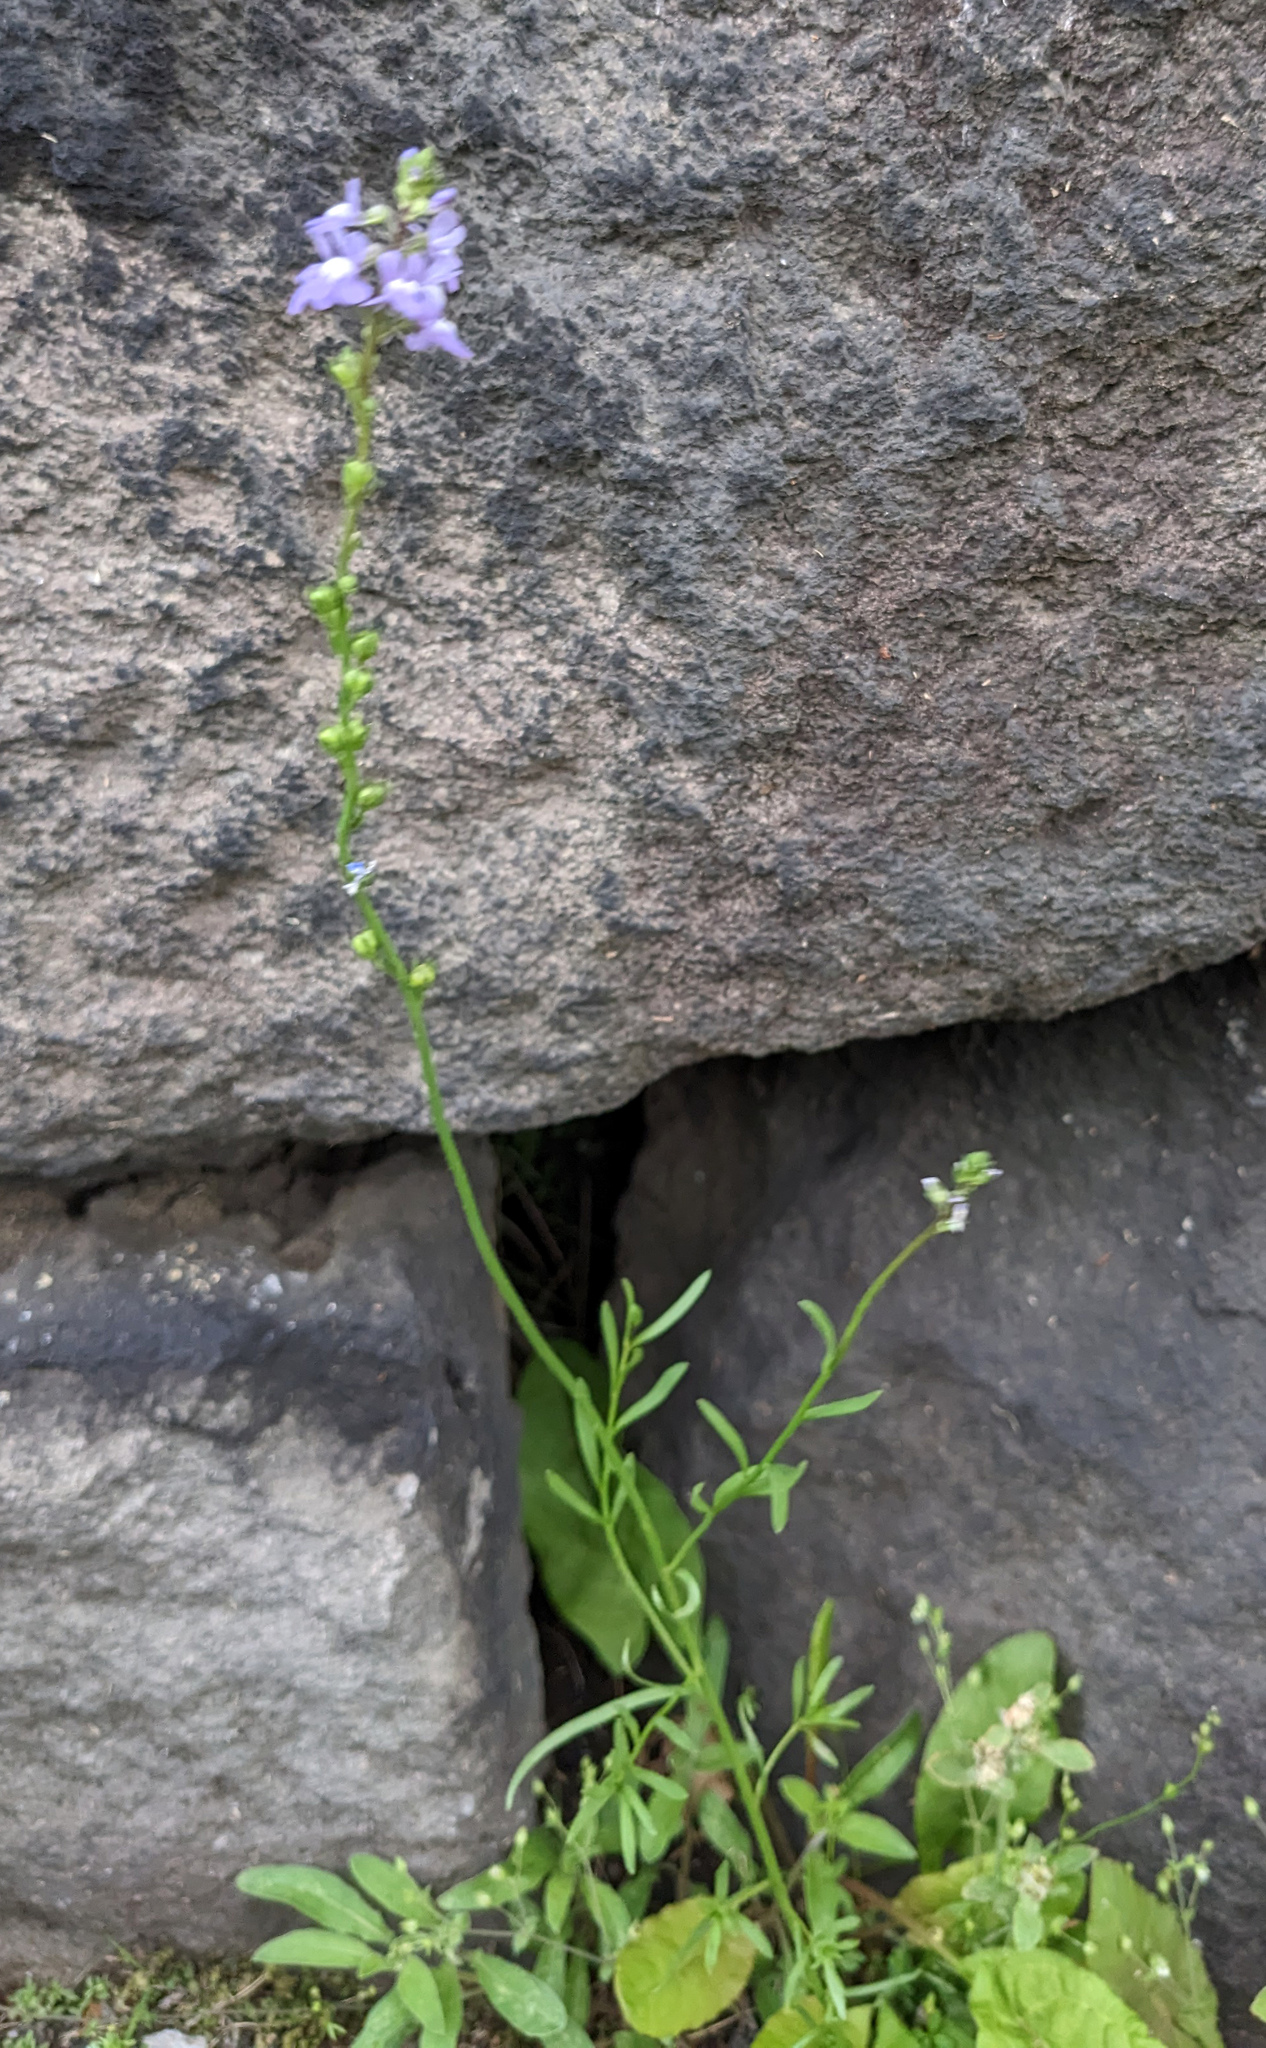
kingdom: Plantae
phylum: Tracheophyta
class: Magnoliopsida
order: Lamiales
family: Plantaginaceae
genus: Nuttallanthus
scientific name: Nuttallanthus canadensis
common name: Blue toadflax
